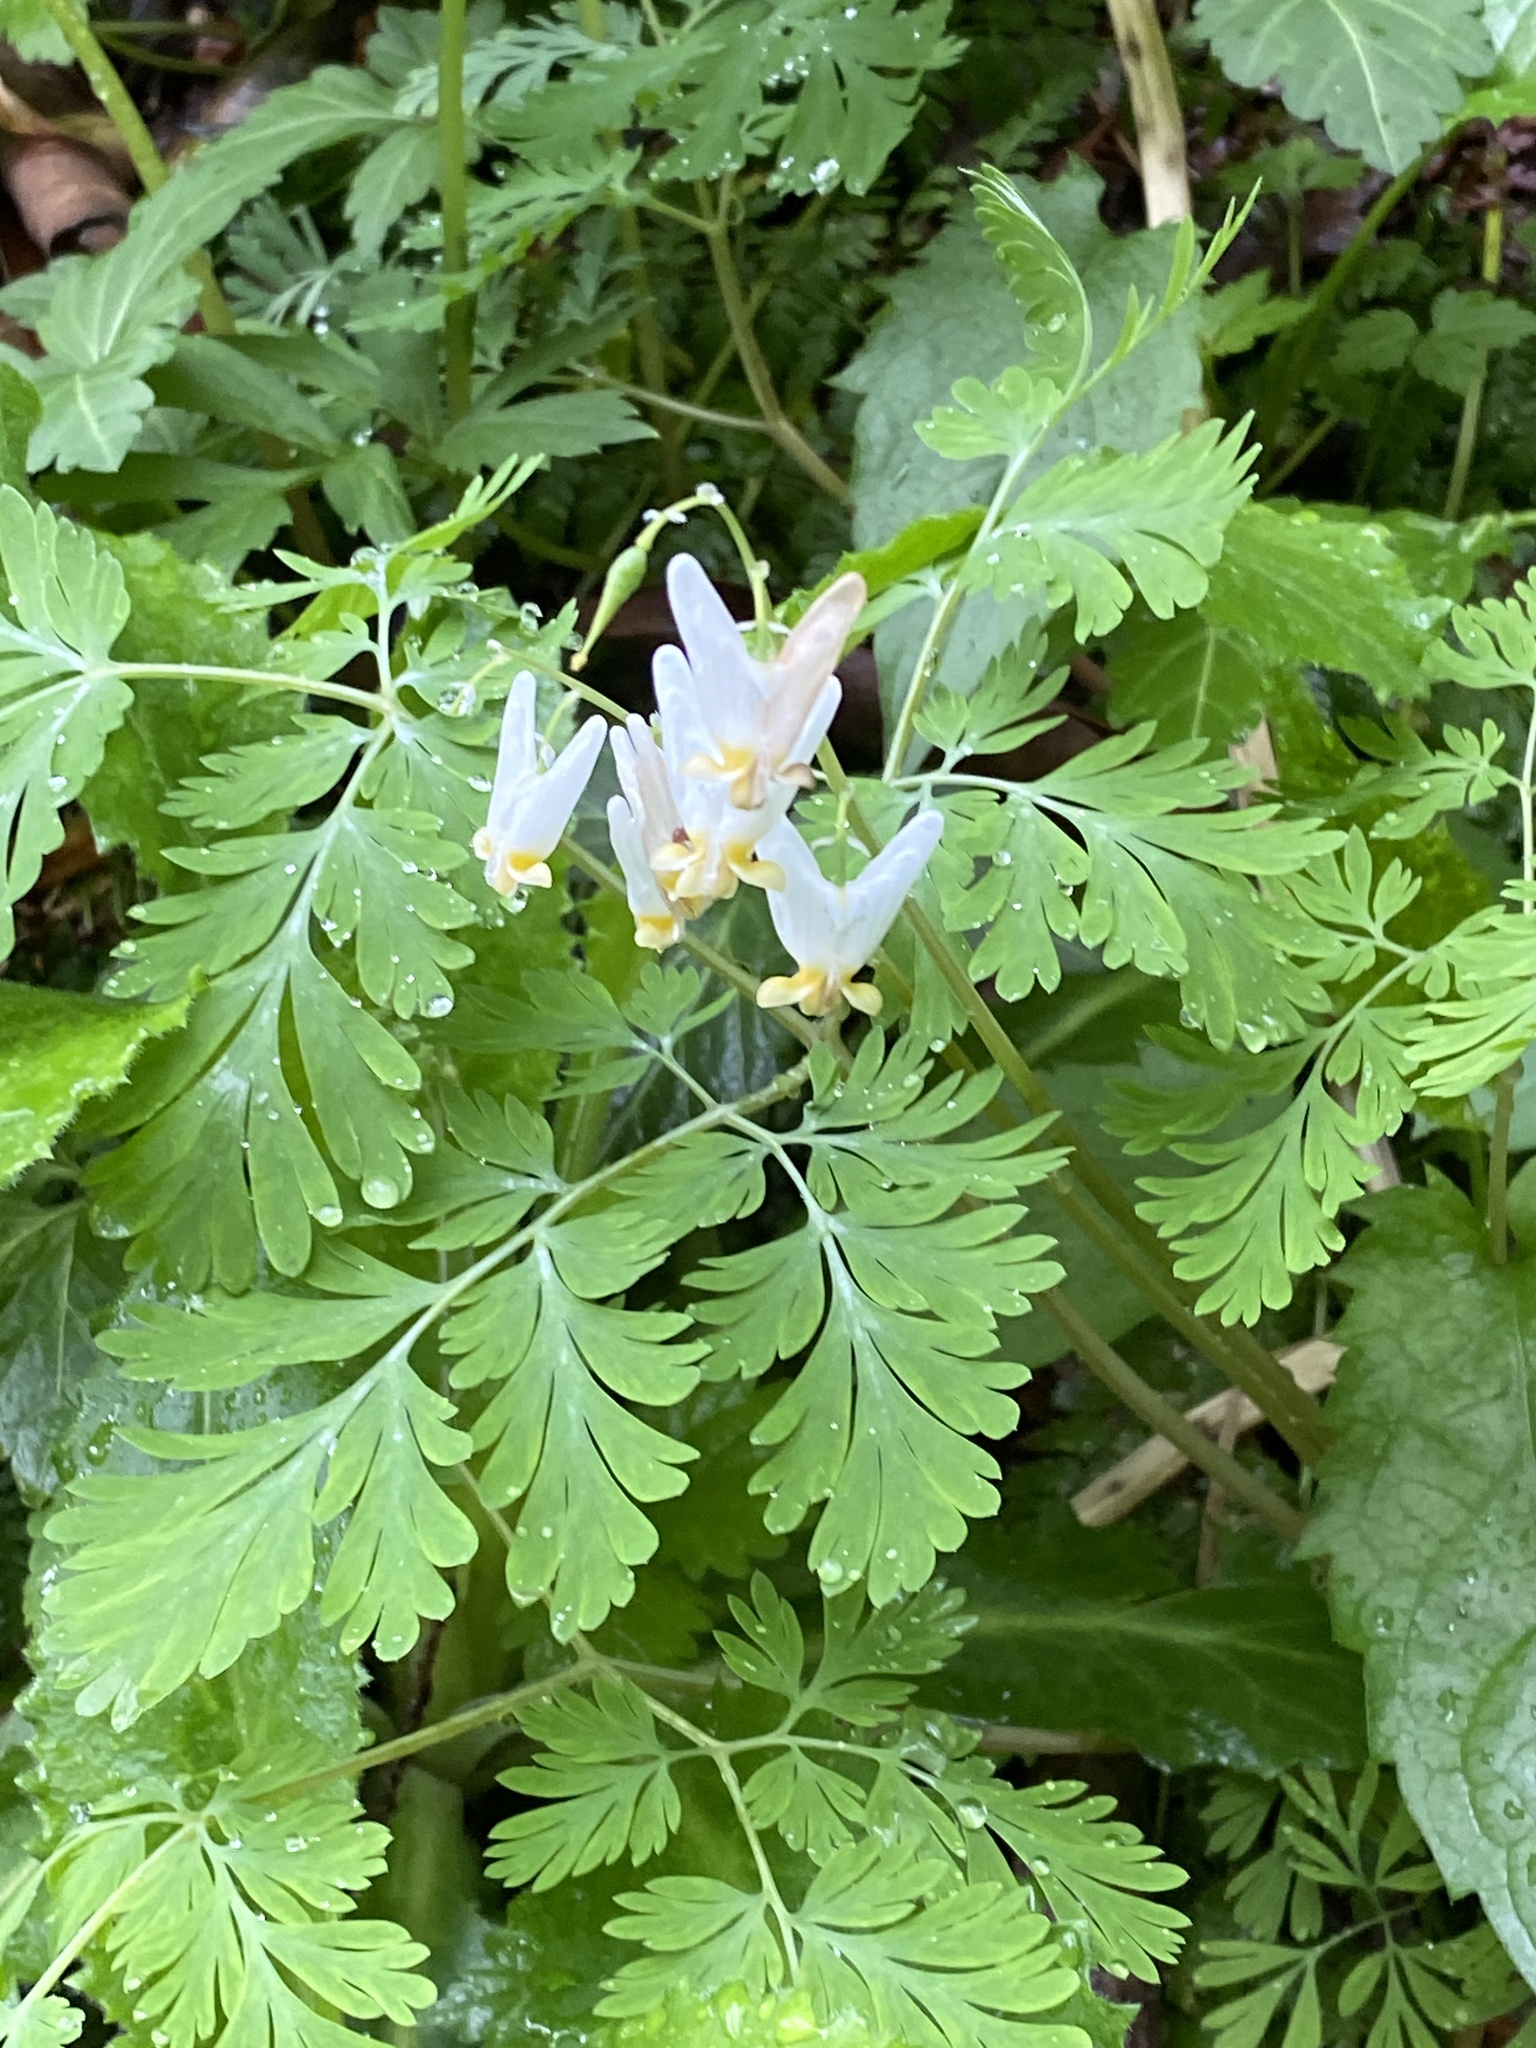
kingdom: Plantae
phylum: Tracheophyta
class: Magnoliopsida
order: Ranunculales
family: Papaveraceae
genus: Dicentra
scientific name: Dicentra cucullaria
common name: Dutchman's breeches
